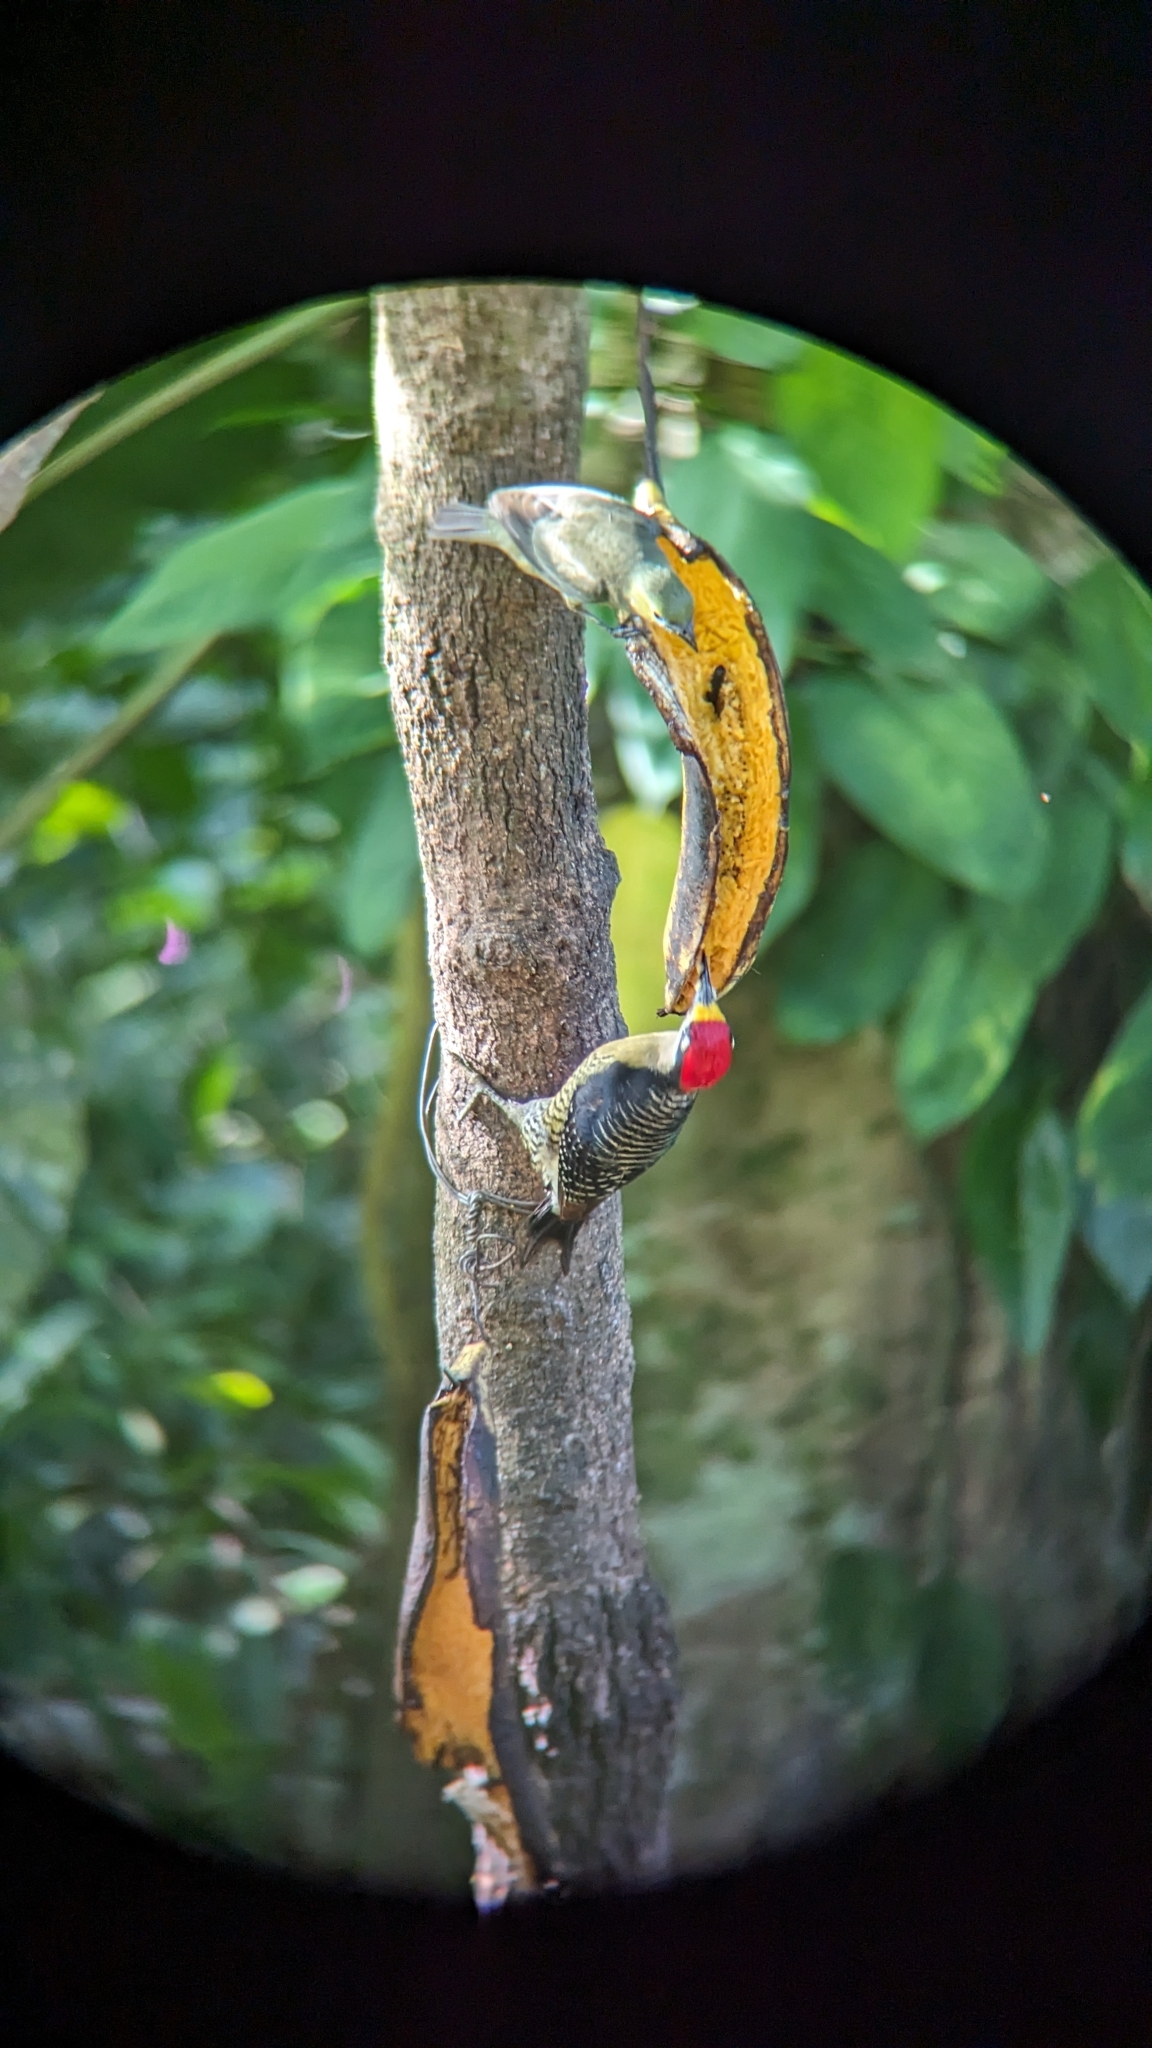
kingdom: Animalia
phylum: Chordata
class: Aves
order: Piciformes
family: Picidae
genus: Melanerpes
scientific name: Melanerpes pucherani
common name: Black-cheeked woodpecker
